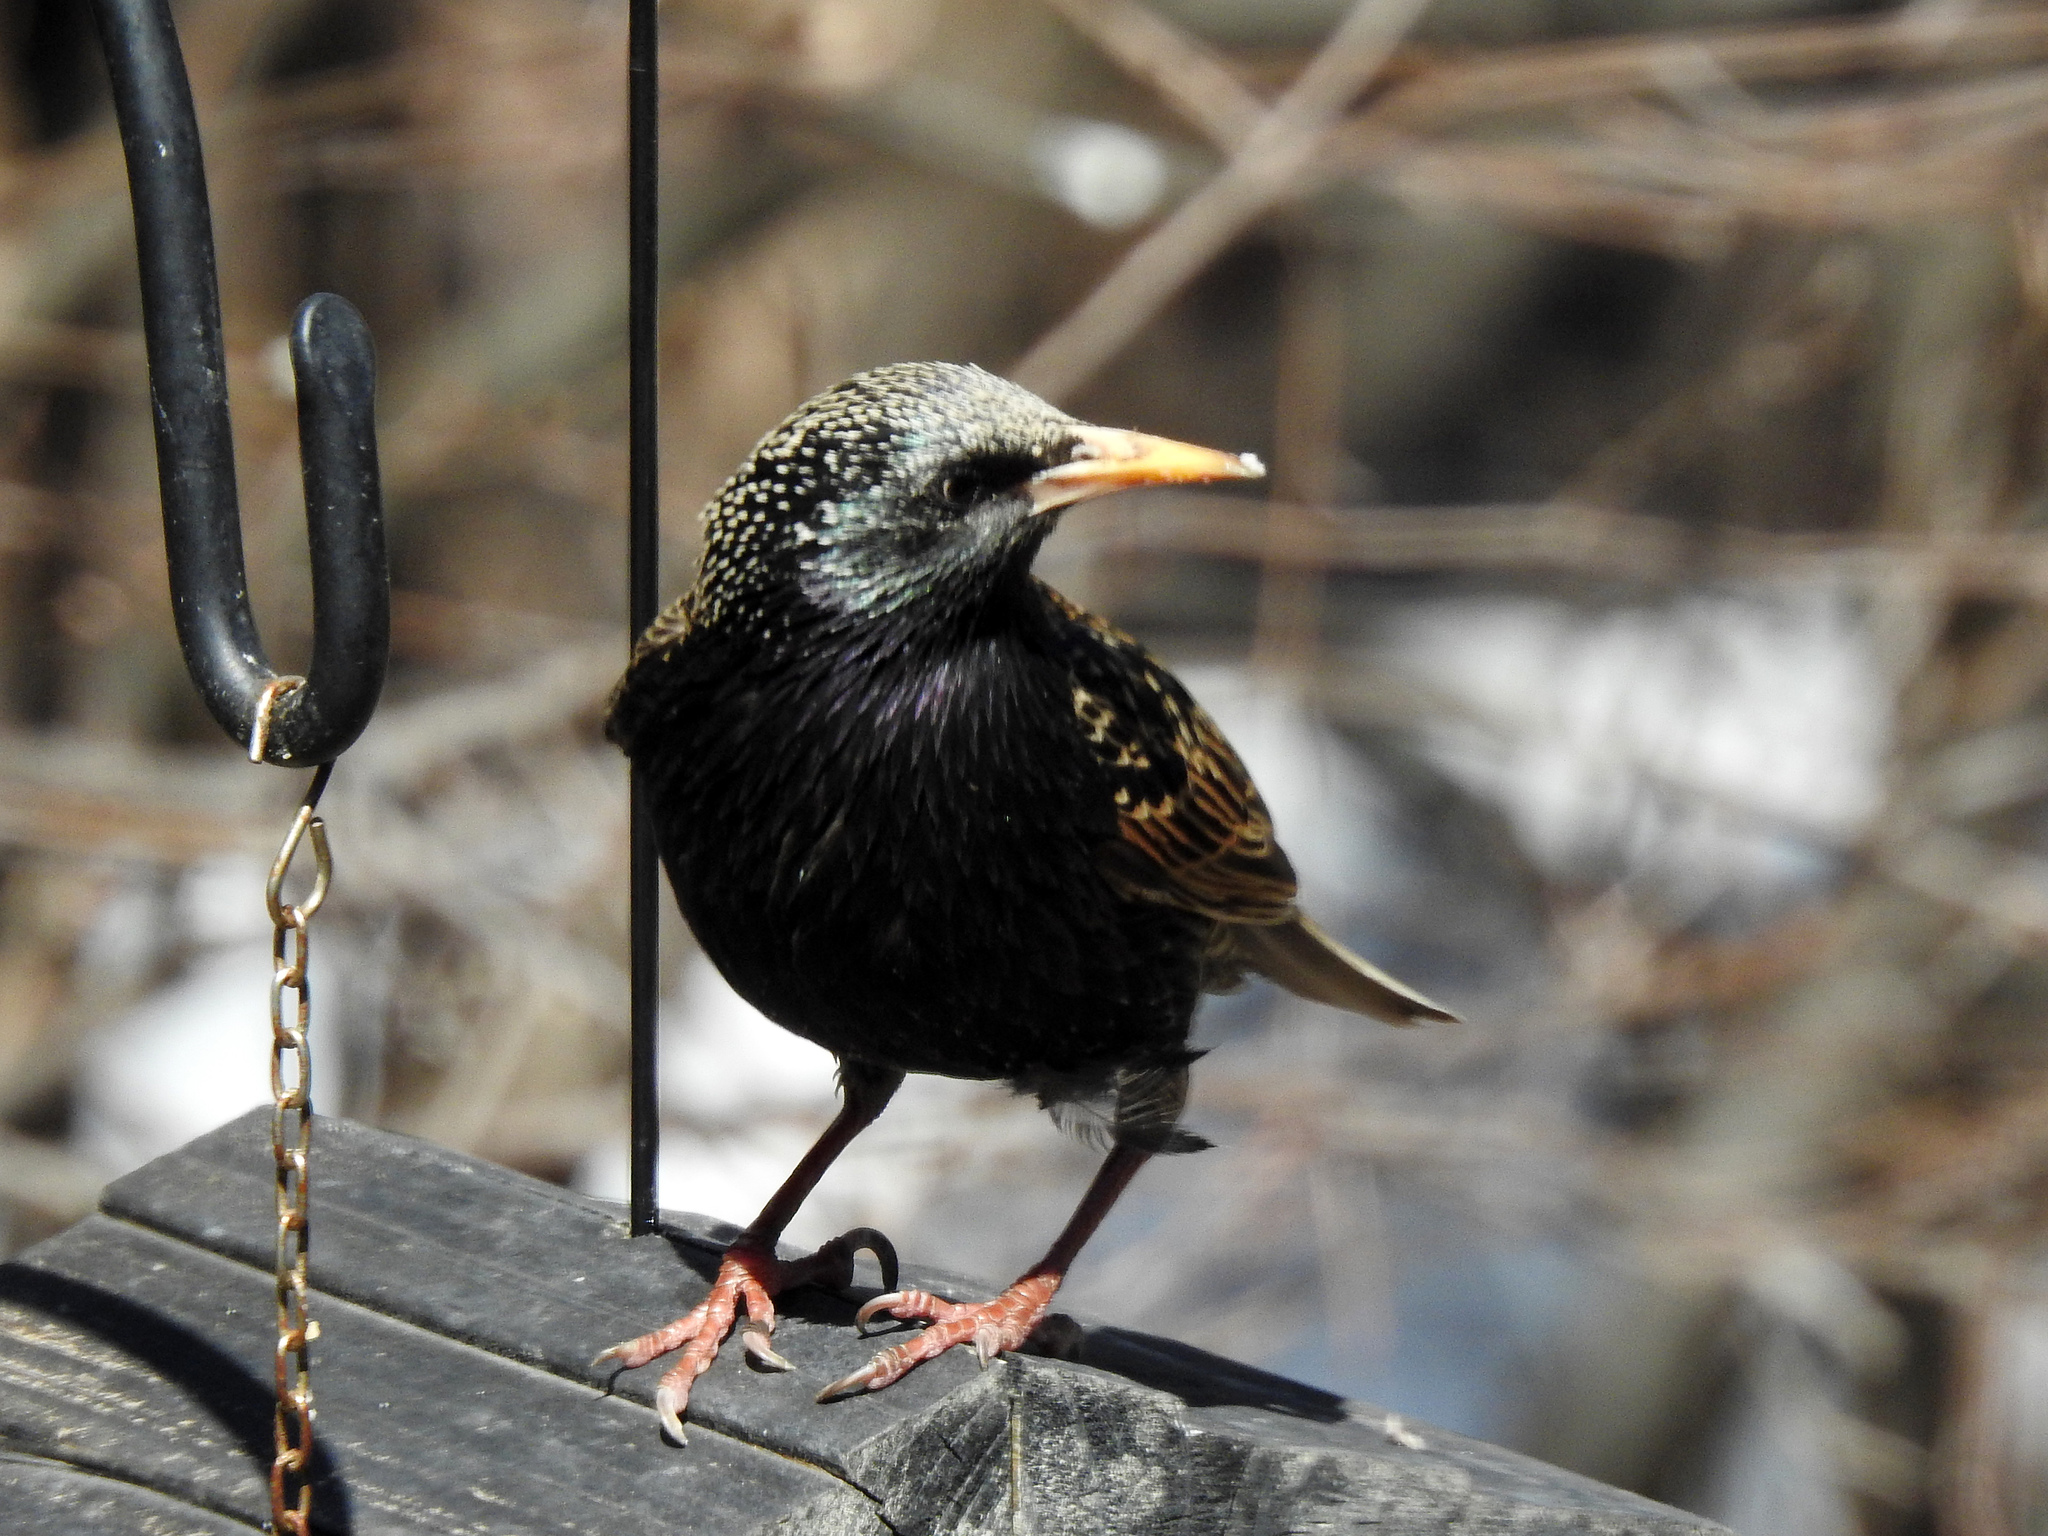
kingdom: Animalia
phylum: Chordata
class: Aves
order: Passeriformes
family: Sturnidae
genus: Sturnus
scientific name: Sturnus vulgaris
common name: Common starling
